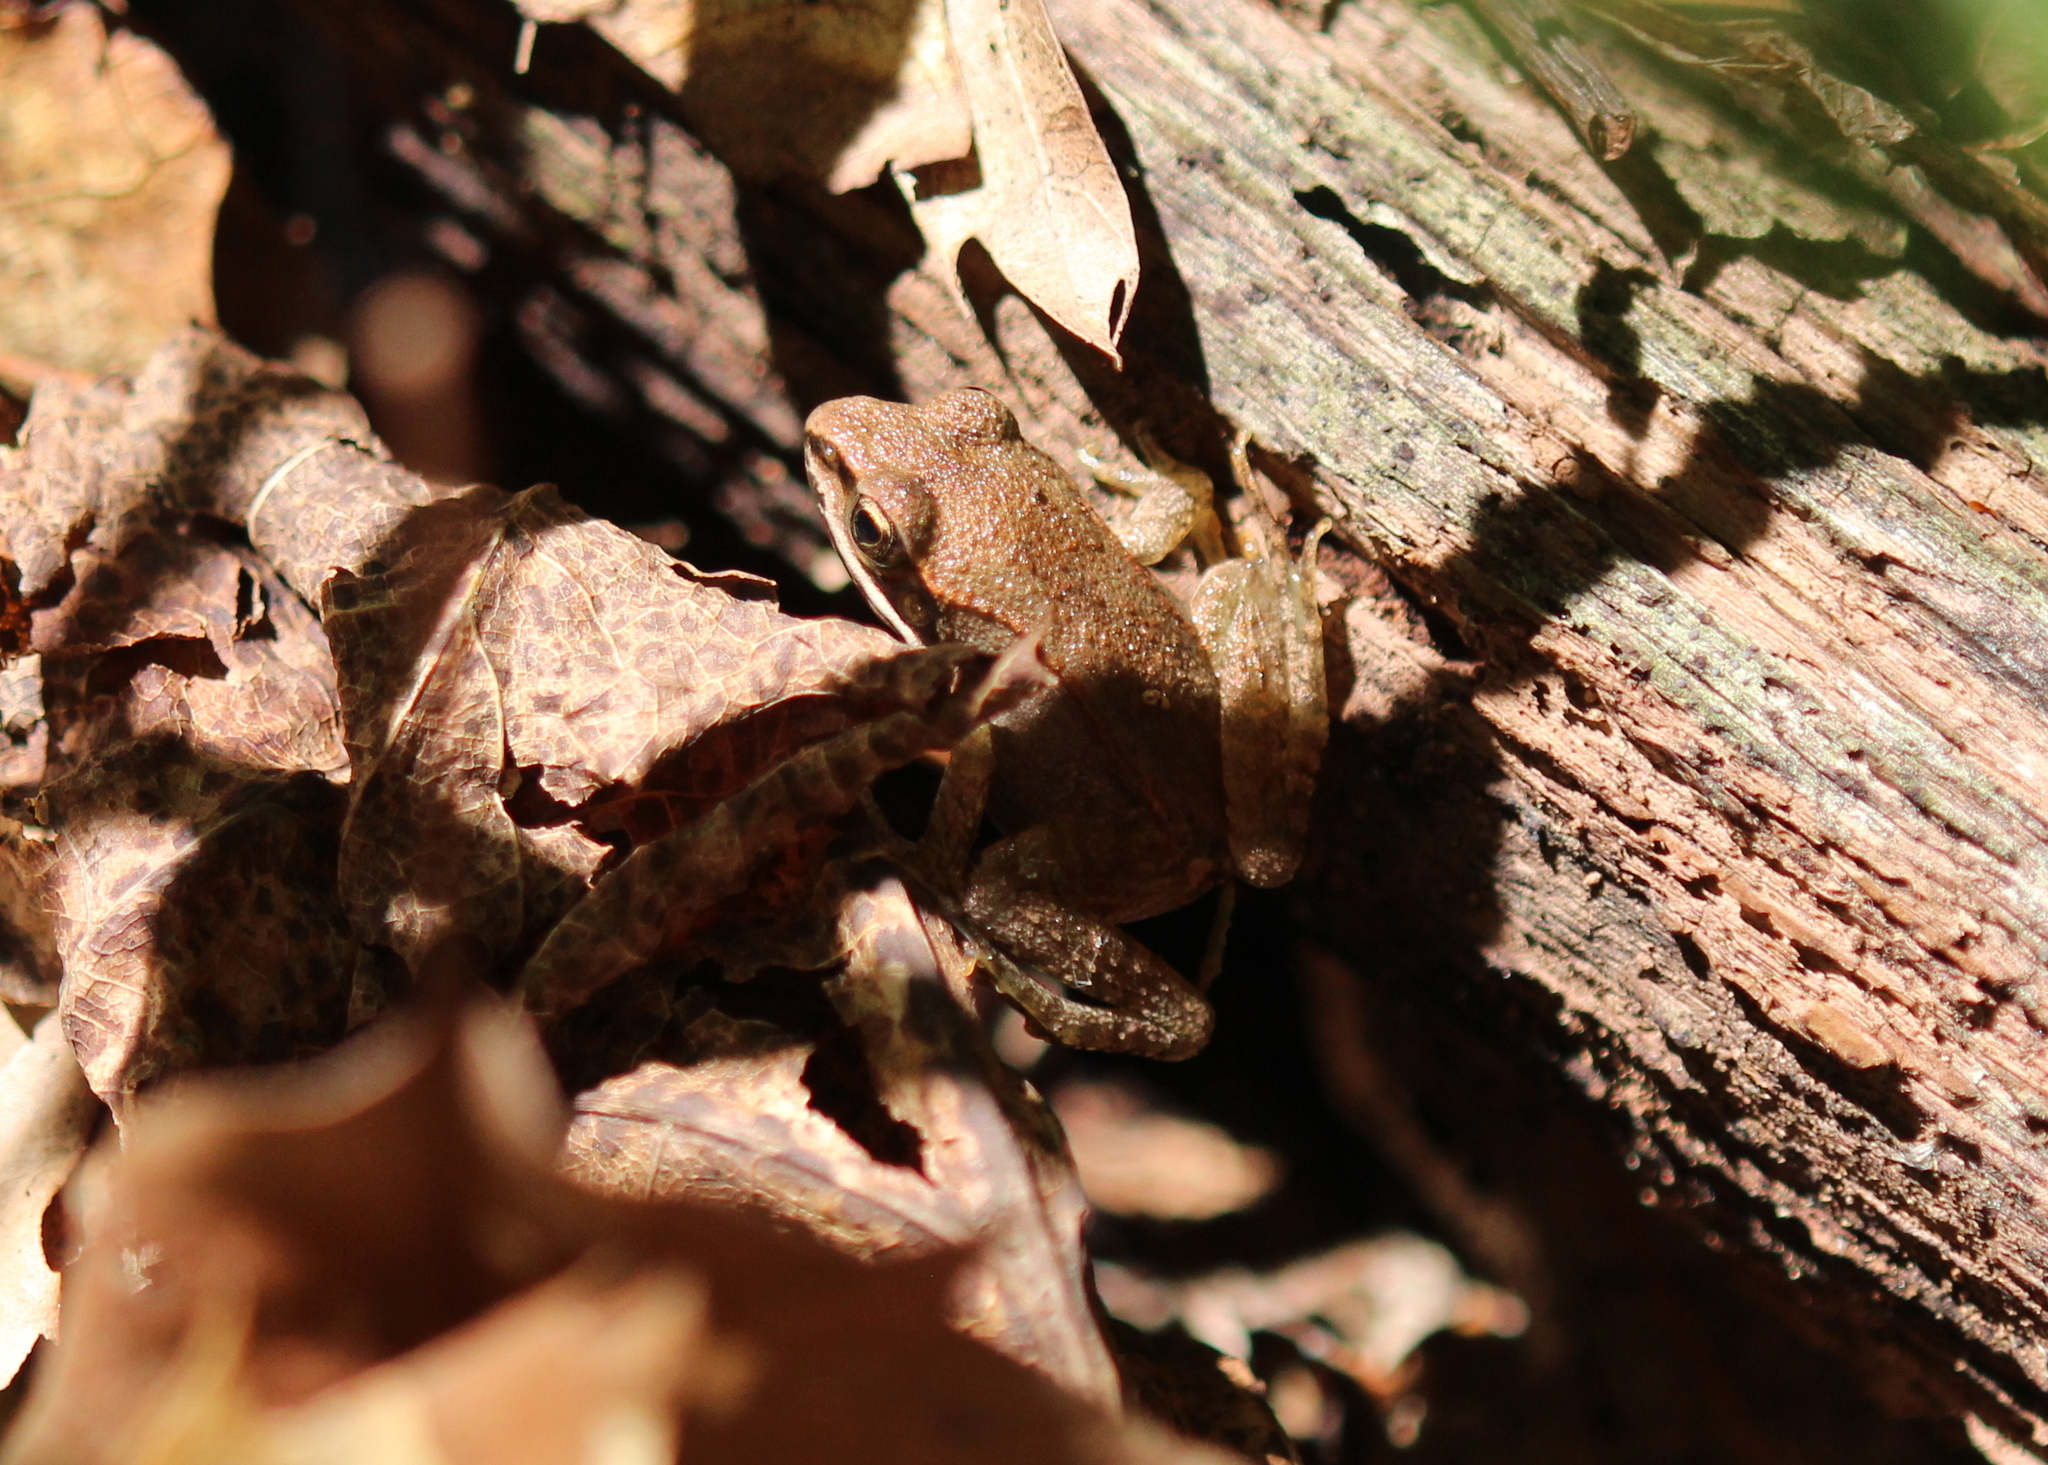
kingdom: Animalia
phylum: Chordata
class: Amphibia
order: Anura
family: Ranidae
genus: Lithobates
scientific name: Lithobates sylvaticus
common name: Wood frog
